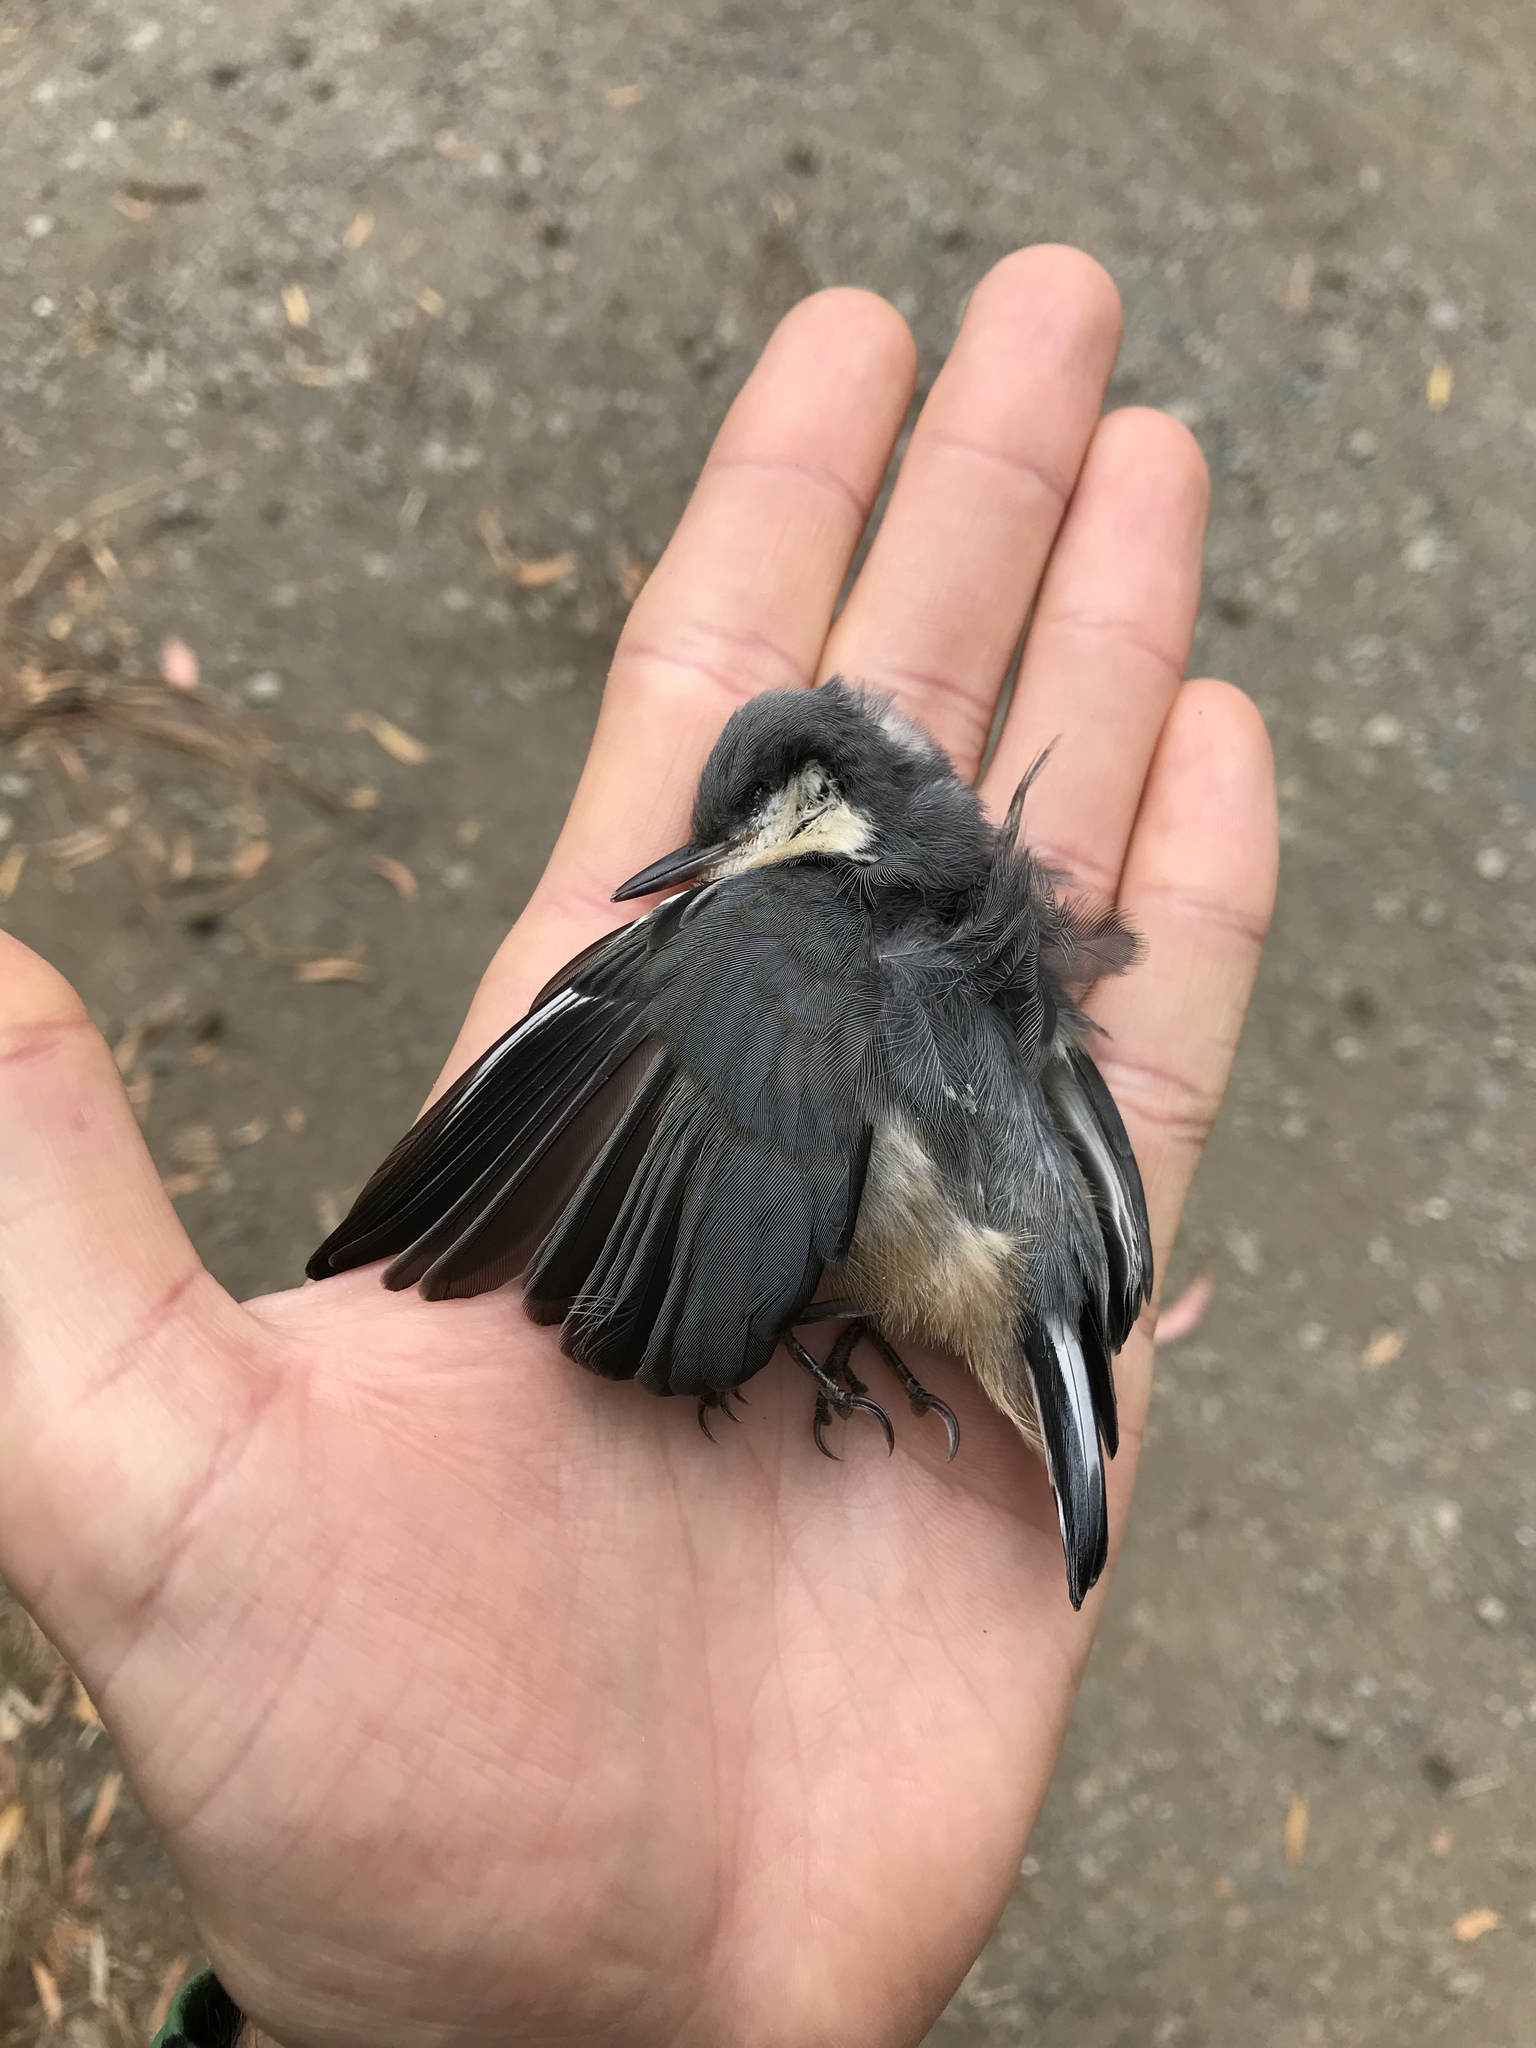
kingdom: Animalia
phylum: Chordata
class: Aves
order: Passeriformes
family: Sittidae
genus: Sitta
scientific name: Sitta pygmaea
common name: Pygmy nuthatch
